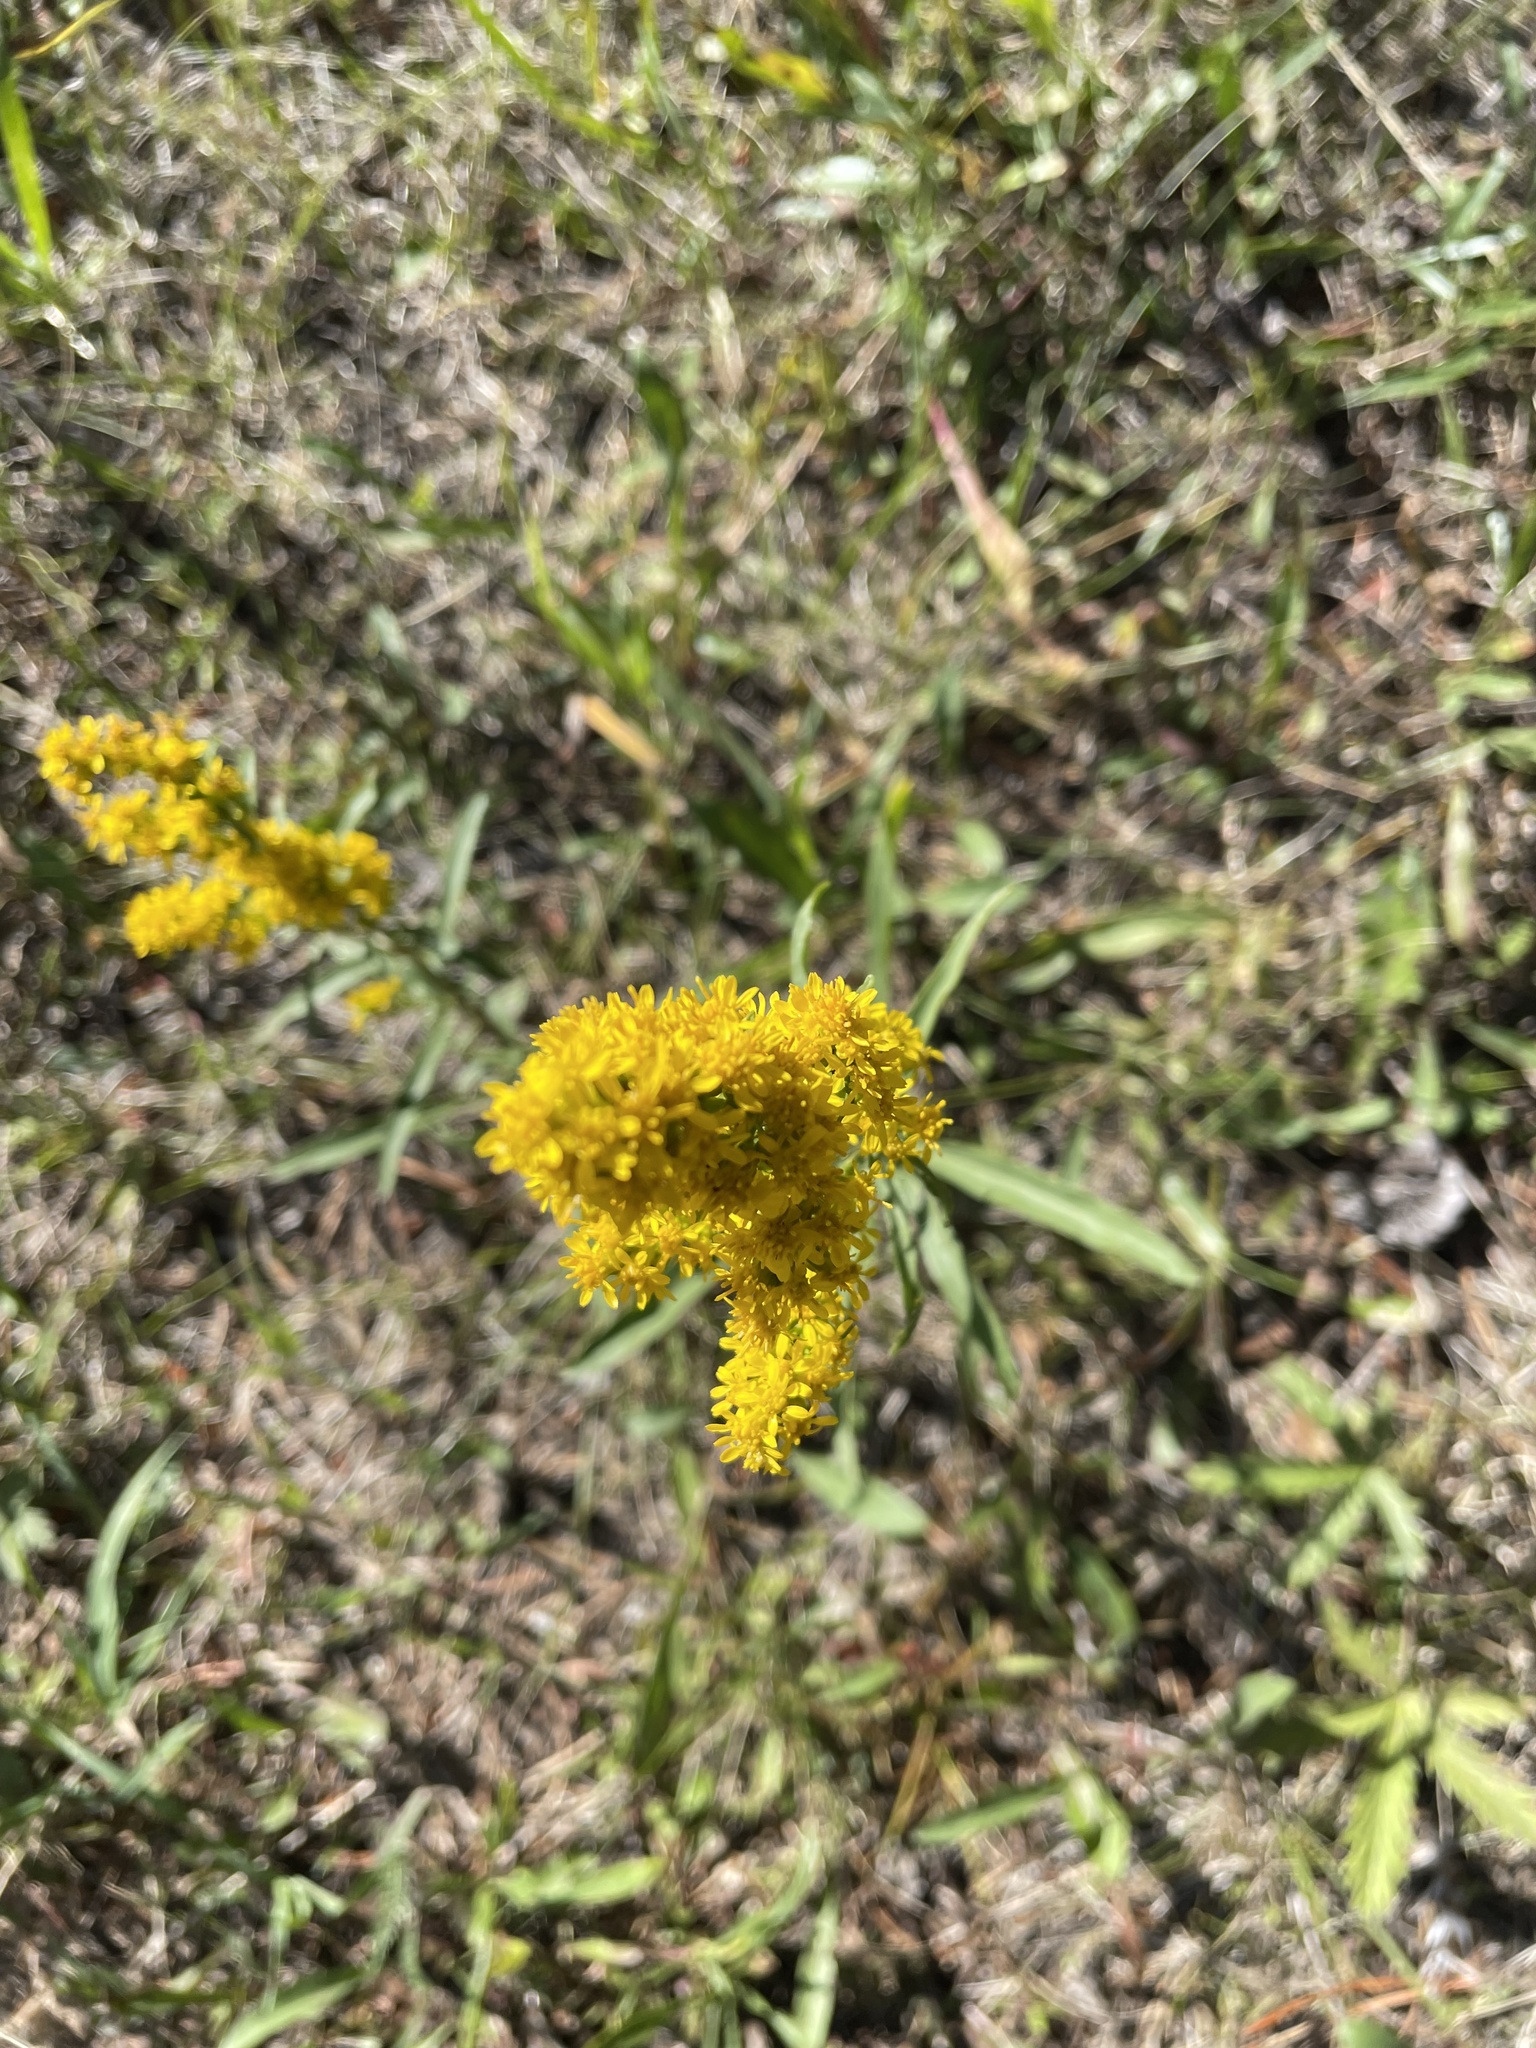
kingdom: Plantae
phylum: Tracheophyta
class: Magnoliopsida
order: Asterales
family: Asteraceae
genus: Solidago
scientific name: Solidago multiradiata
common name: Northern goldenrod
